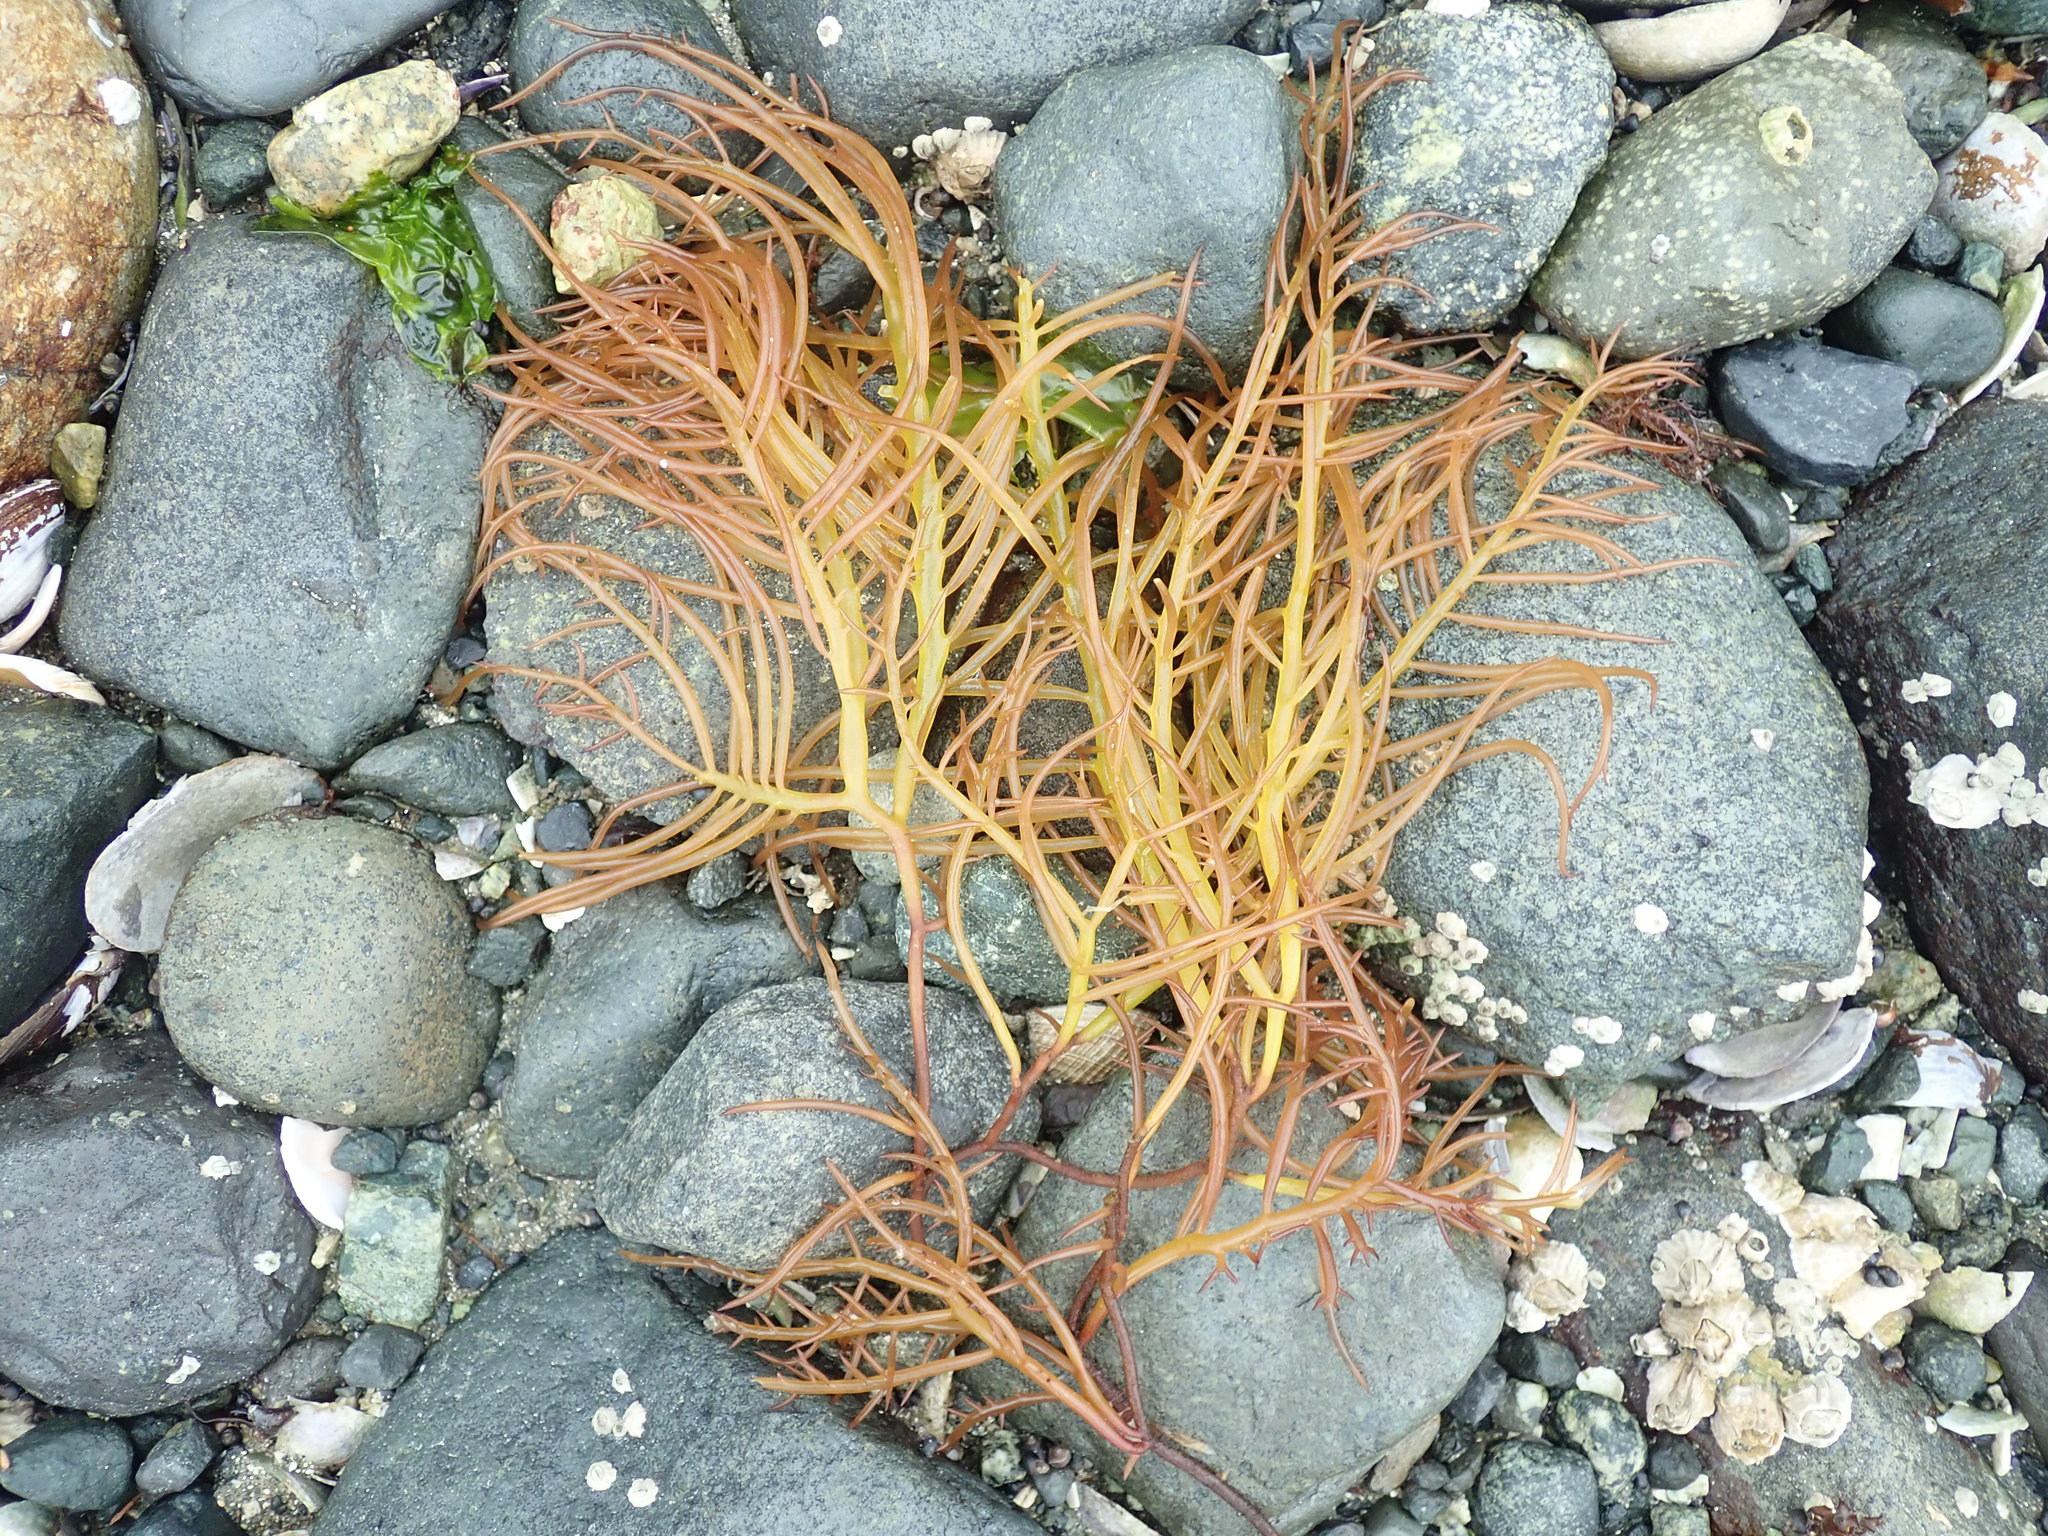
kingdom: Plantae
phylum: Rhodophyta
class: Florideophyceae
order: Gigartinales
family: Solieriaceae
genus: Sarcodiotheca
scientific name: Sarcodiotheca gaudichaudii
